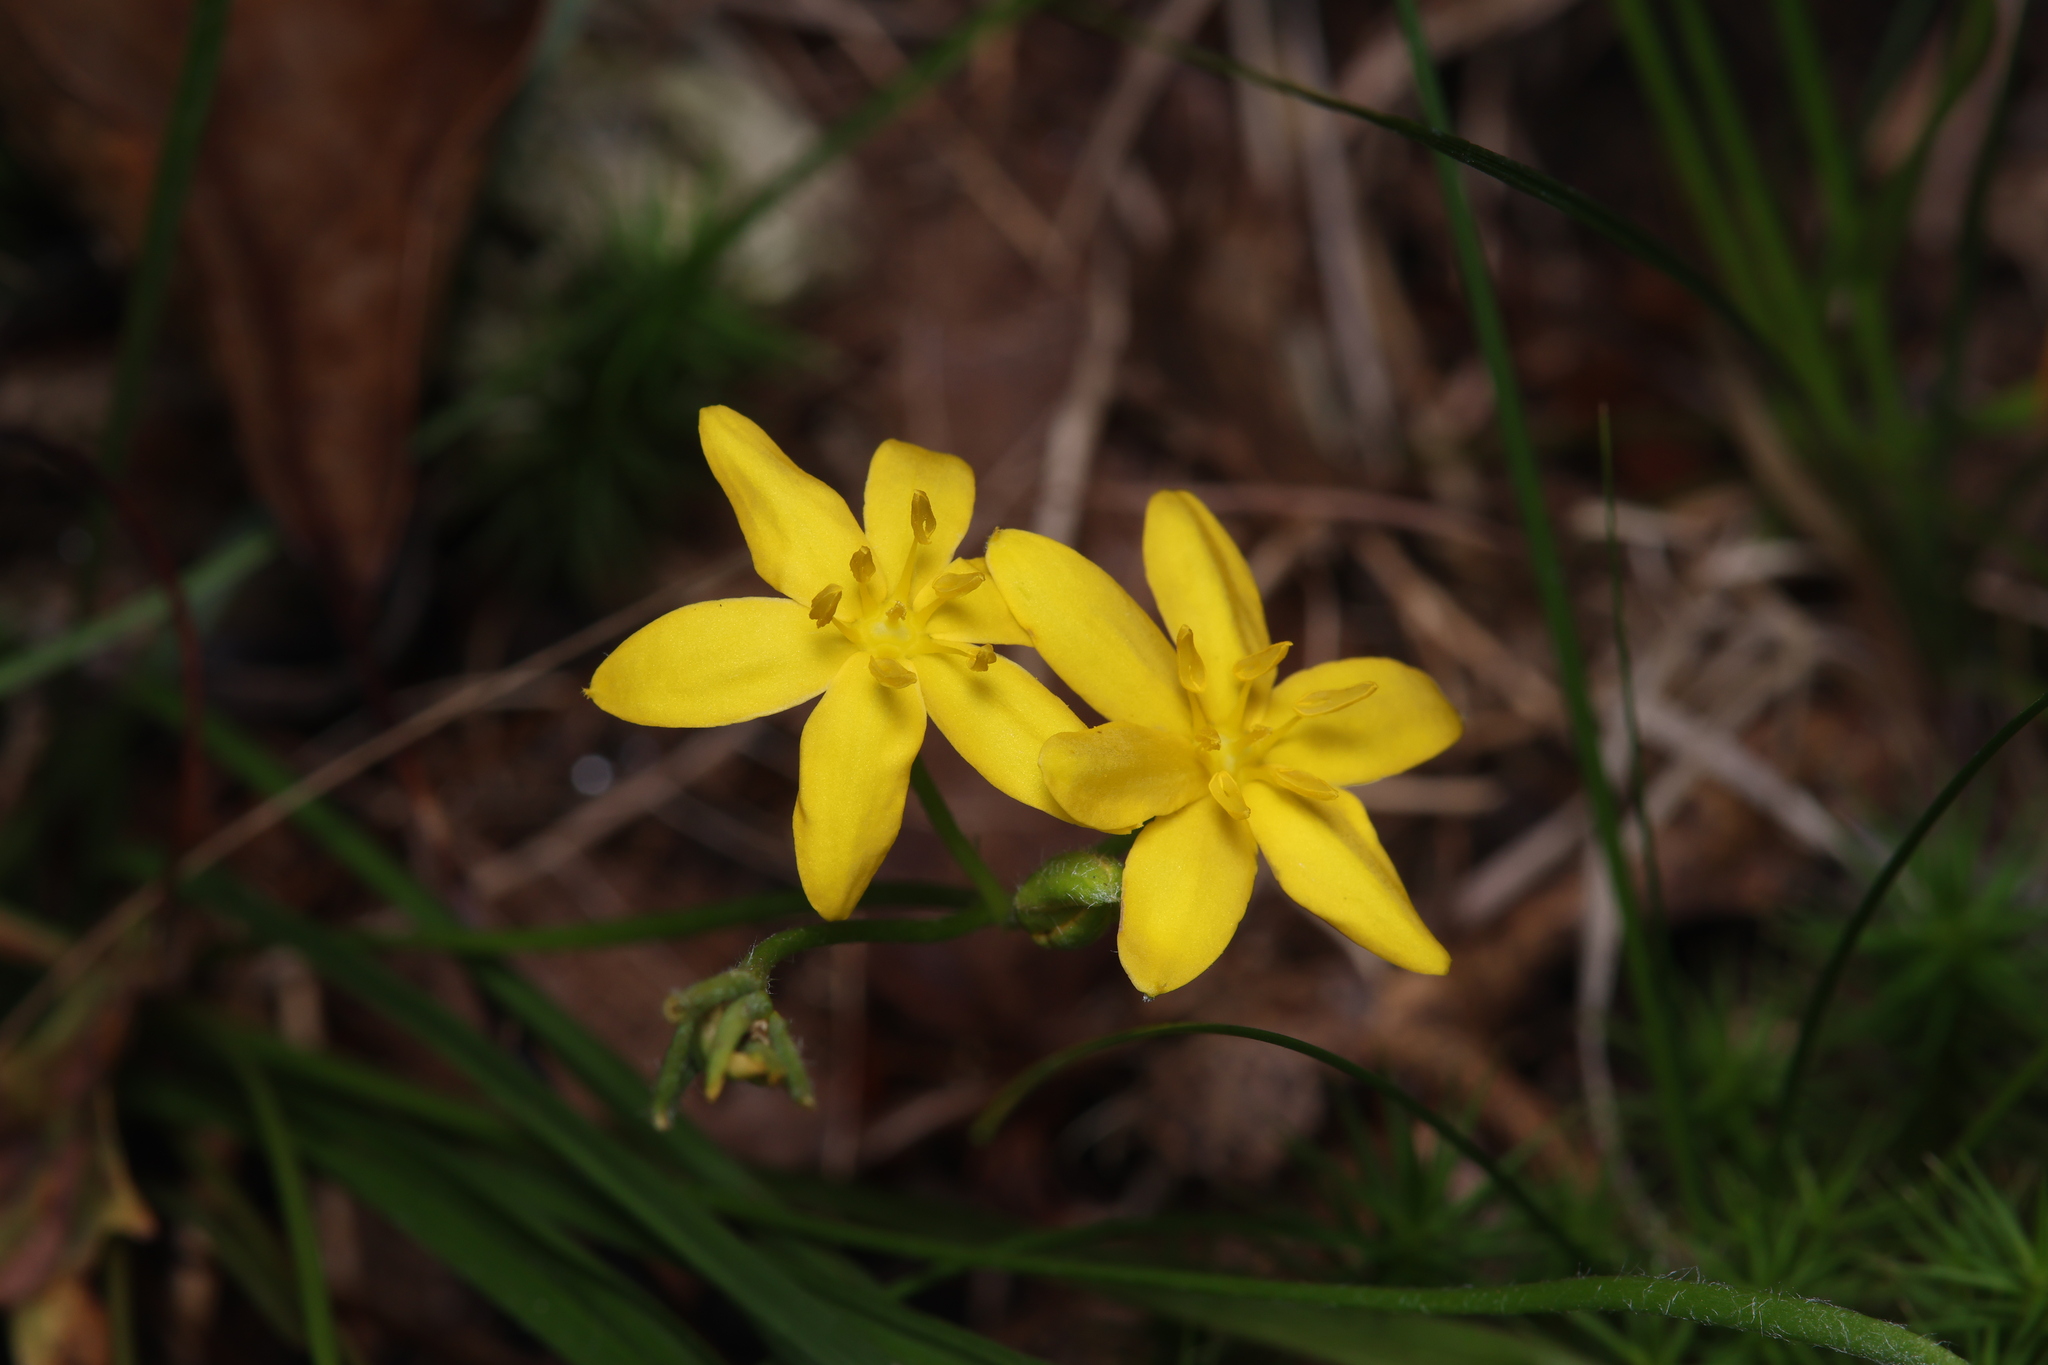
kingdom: Plantae
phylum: Tracheophyta
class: Liliopsida
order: Asparagales
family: Hypoxidaceae
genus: Hypoxis
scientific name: Hypoxis hirsuta
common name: Common goldstar
